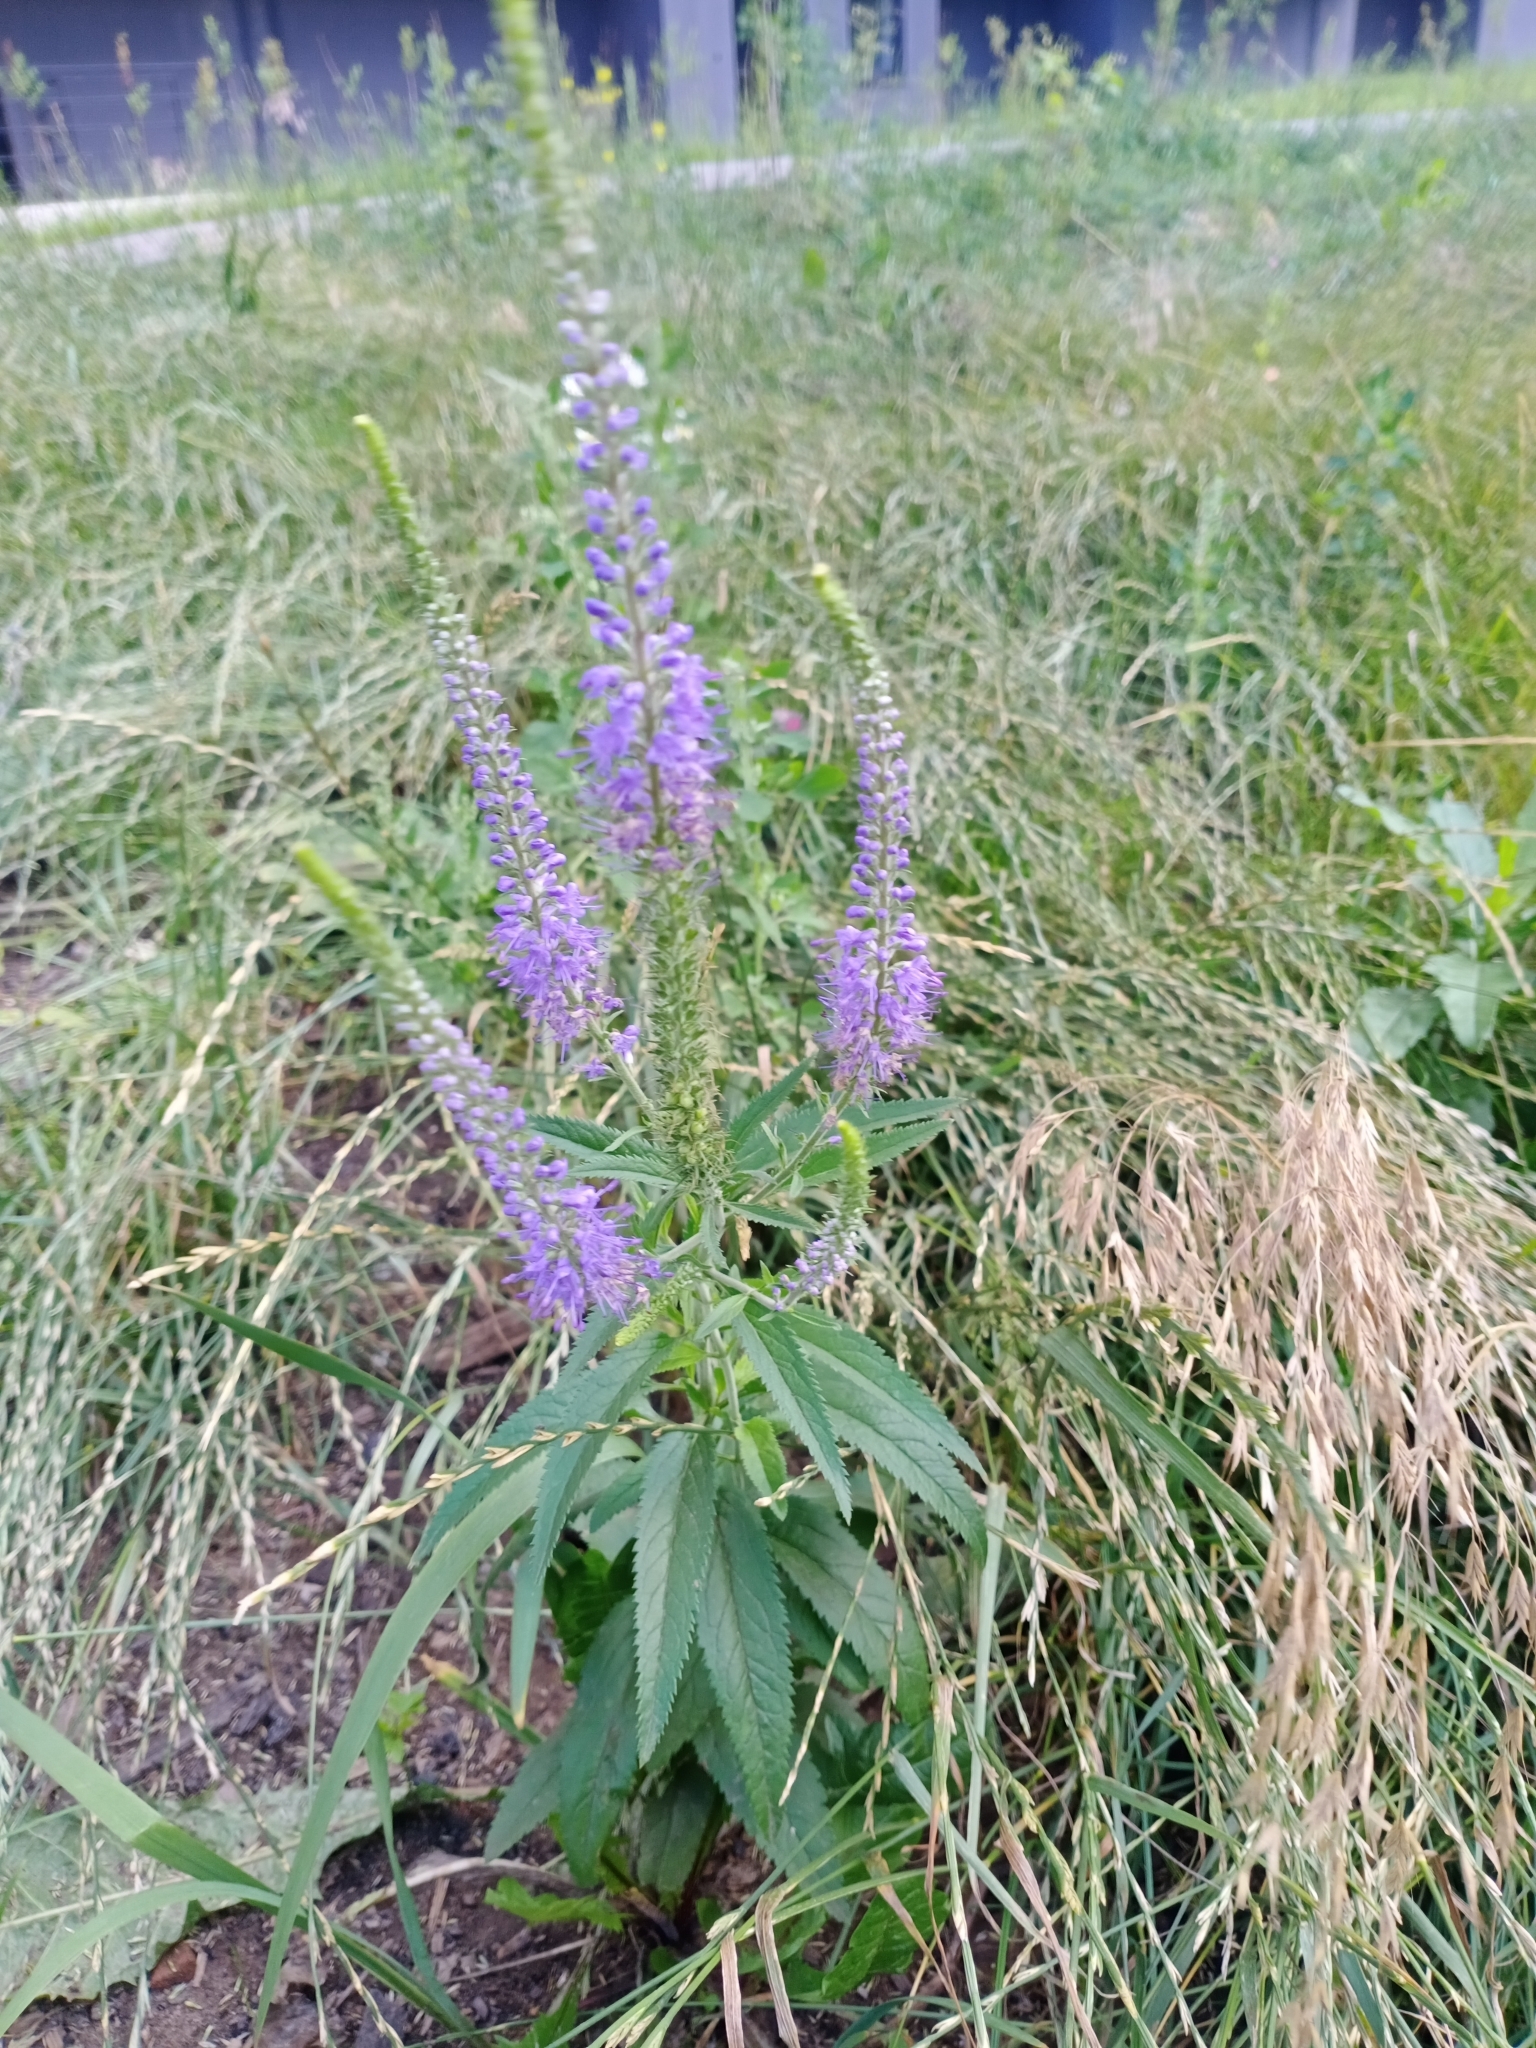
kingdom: Plantae
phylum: Tracheophyta
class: Magnoliopsida
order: Lamiales
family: Plantaginaceae
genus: Veronica
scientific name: Veronica longifolia
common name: Garden speedwell
